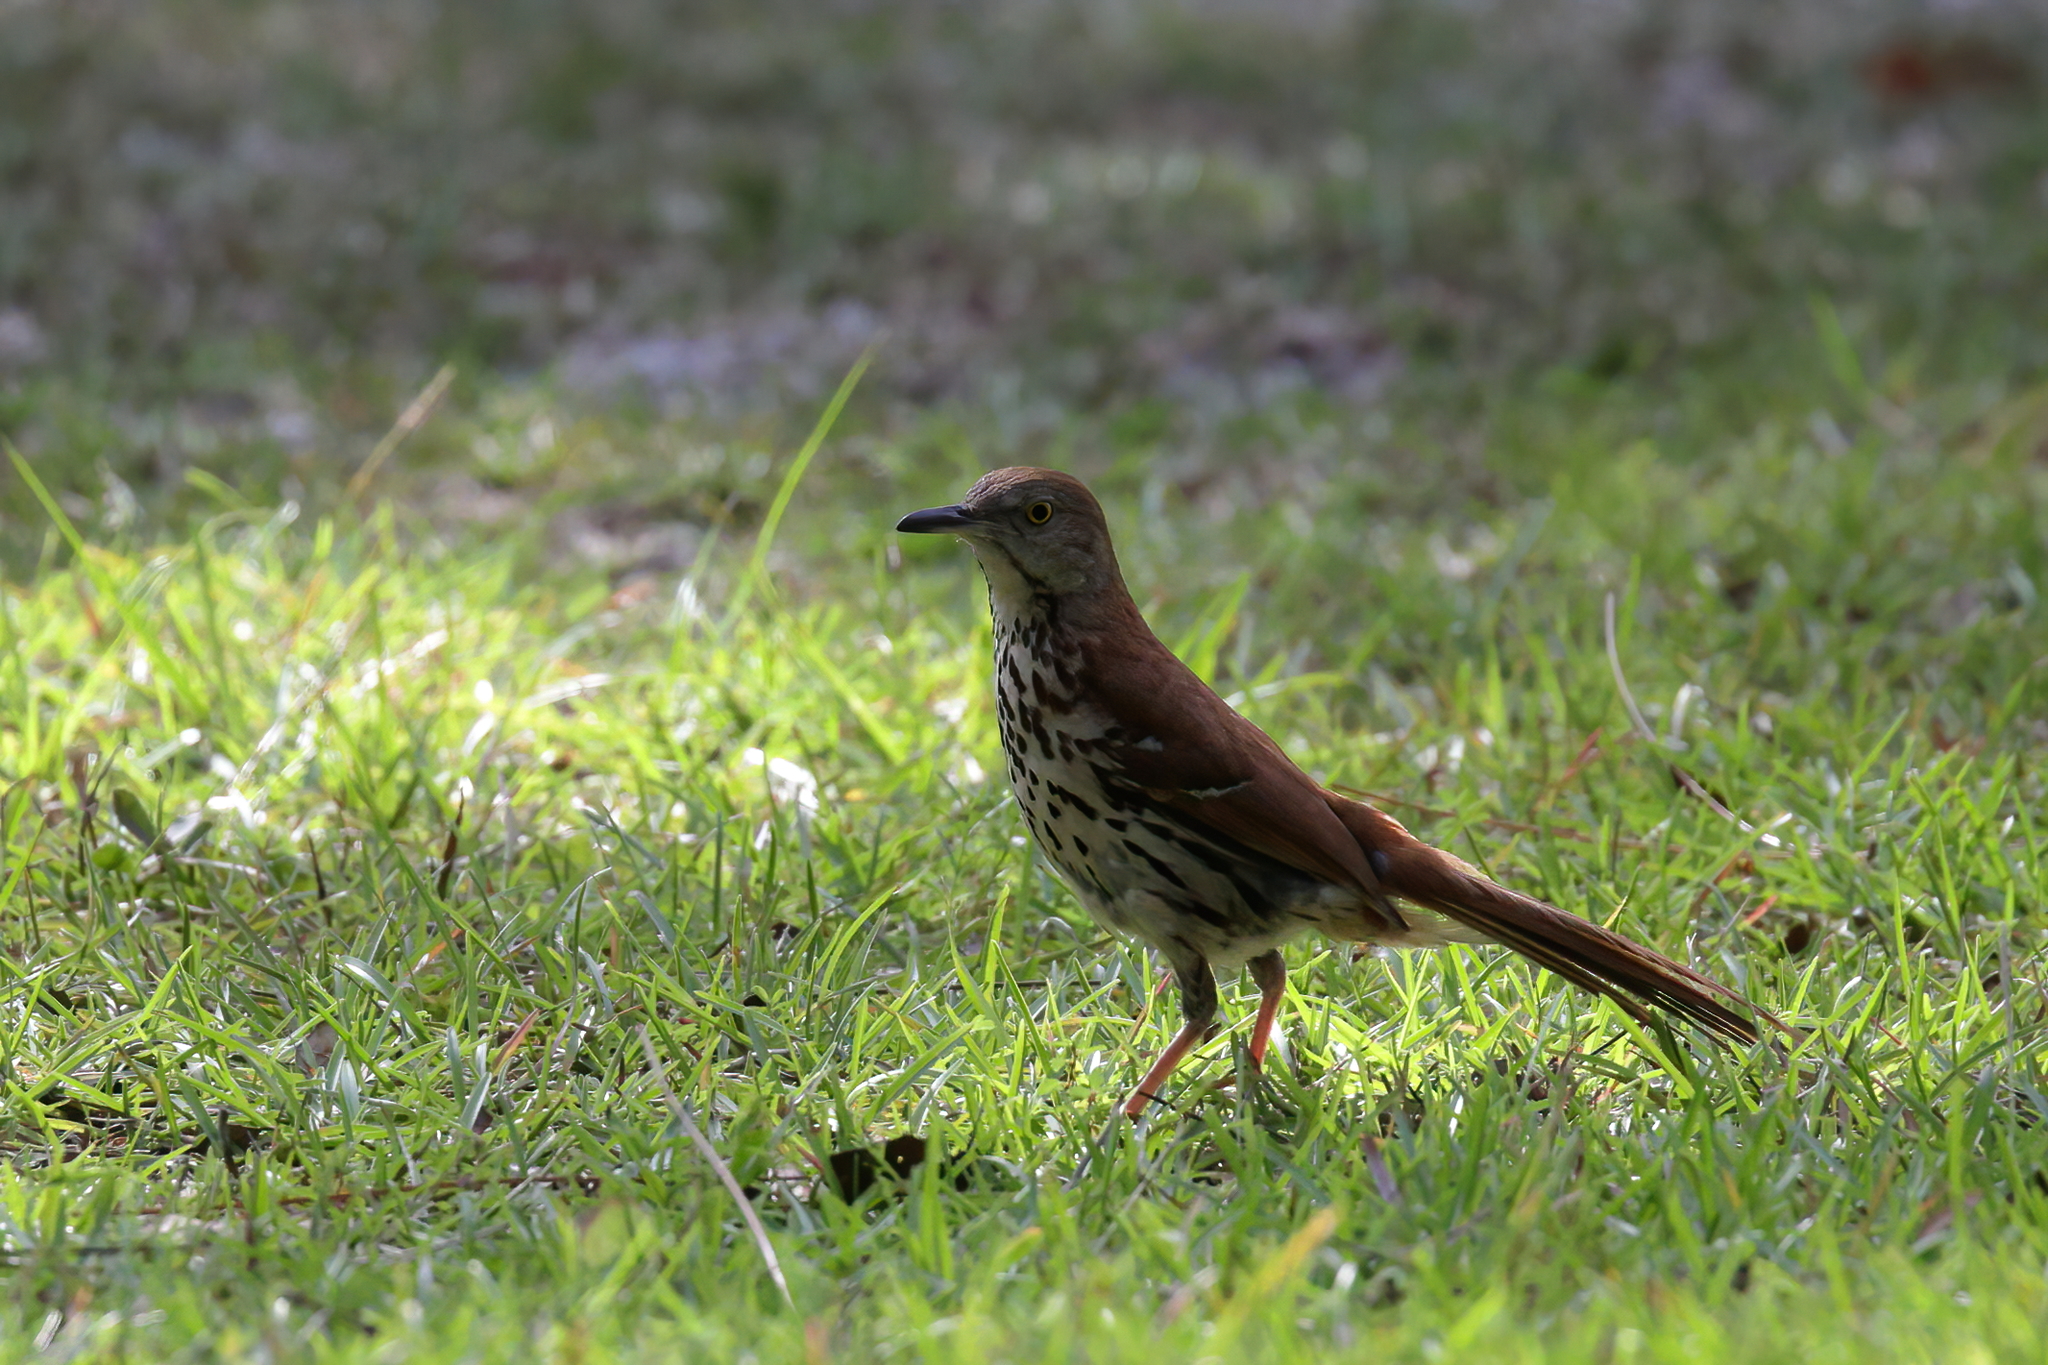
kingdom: Animalia
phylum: Chordata
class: Aves
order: Passeriformes
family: Mimidae
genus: Toxostoma
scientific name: Toxostoma rufum
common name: Brown thrasher
